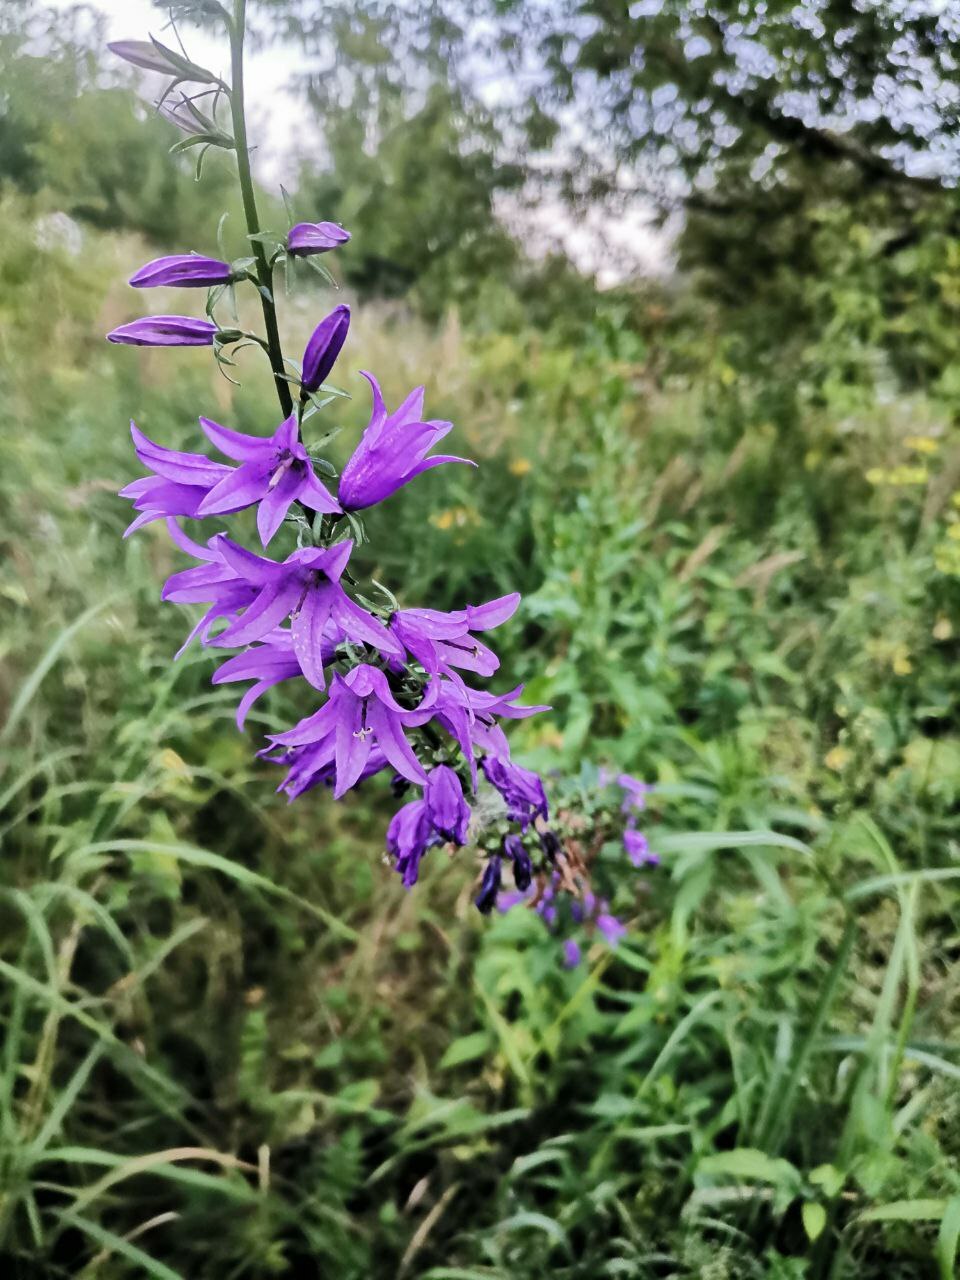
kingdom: Plantae
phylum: Tracheophyta
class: Magnoliopsida
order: Asterales
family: Campanulaceae
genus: Campanula
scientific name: Campanula rapunculoides
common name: Creeping bellflower
